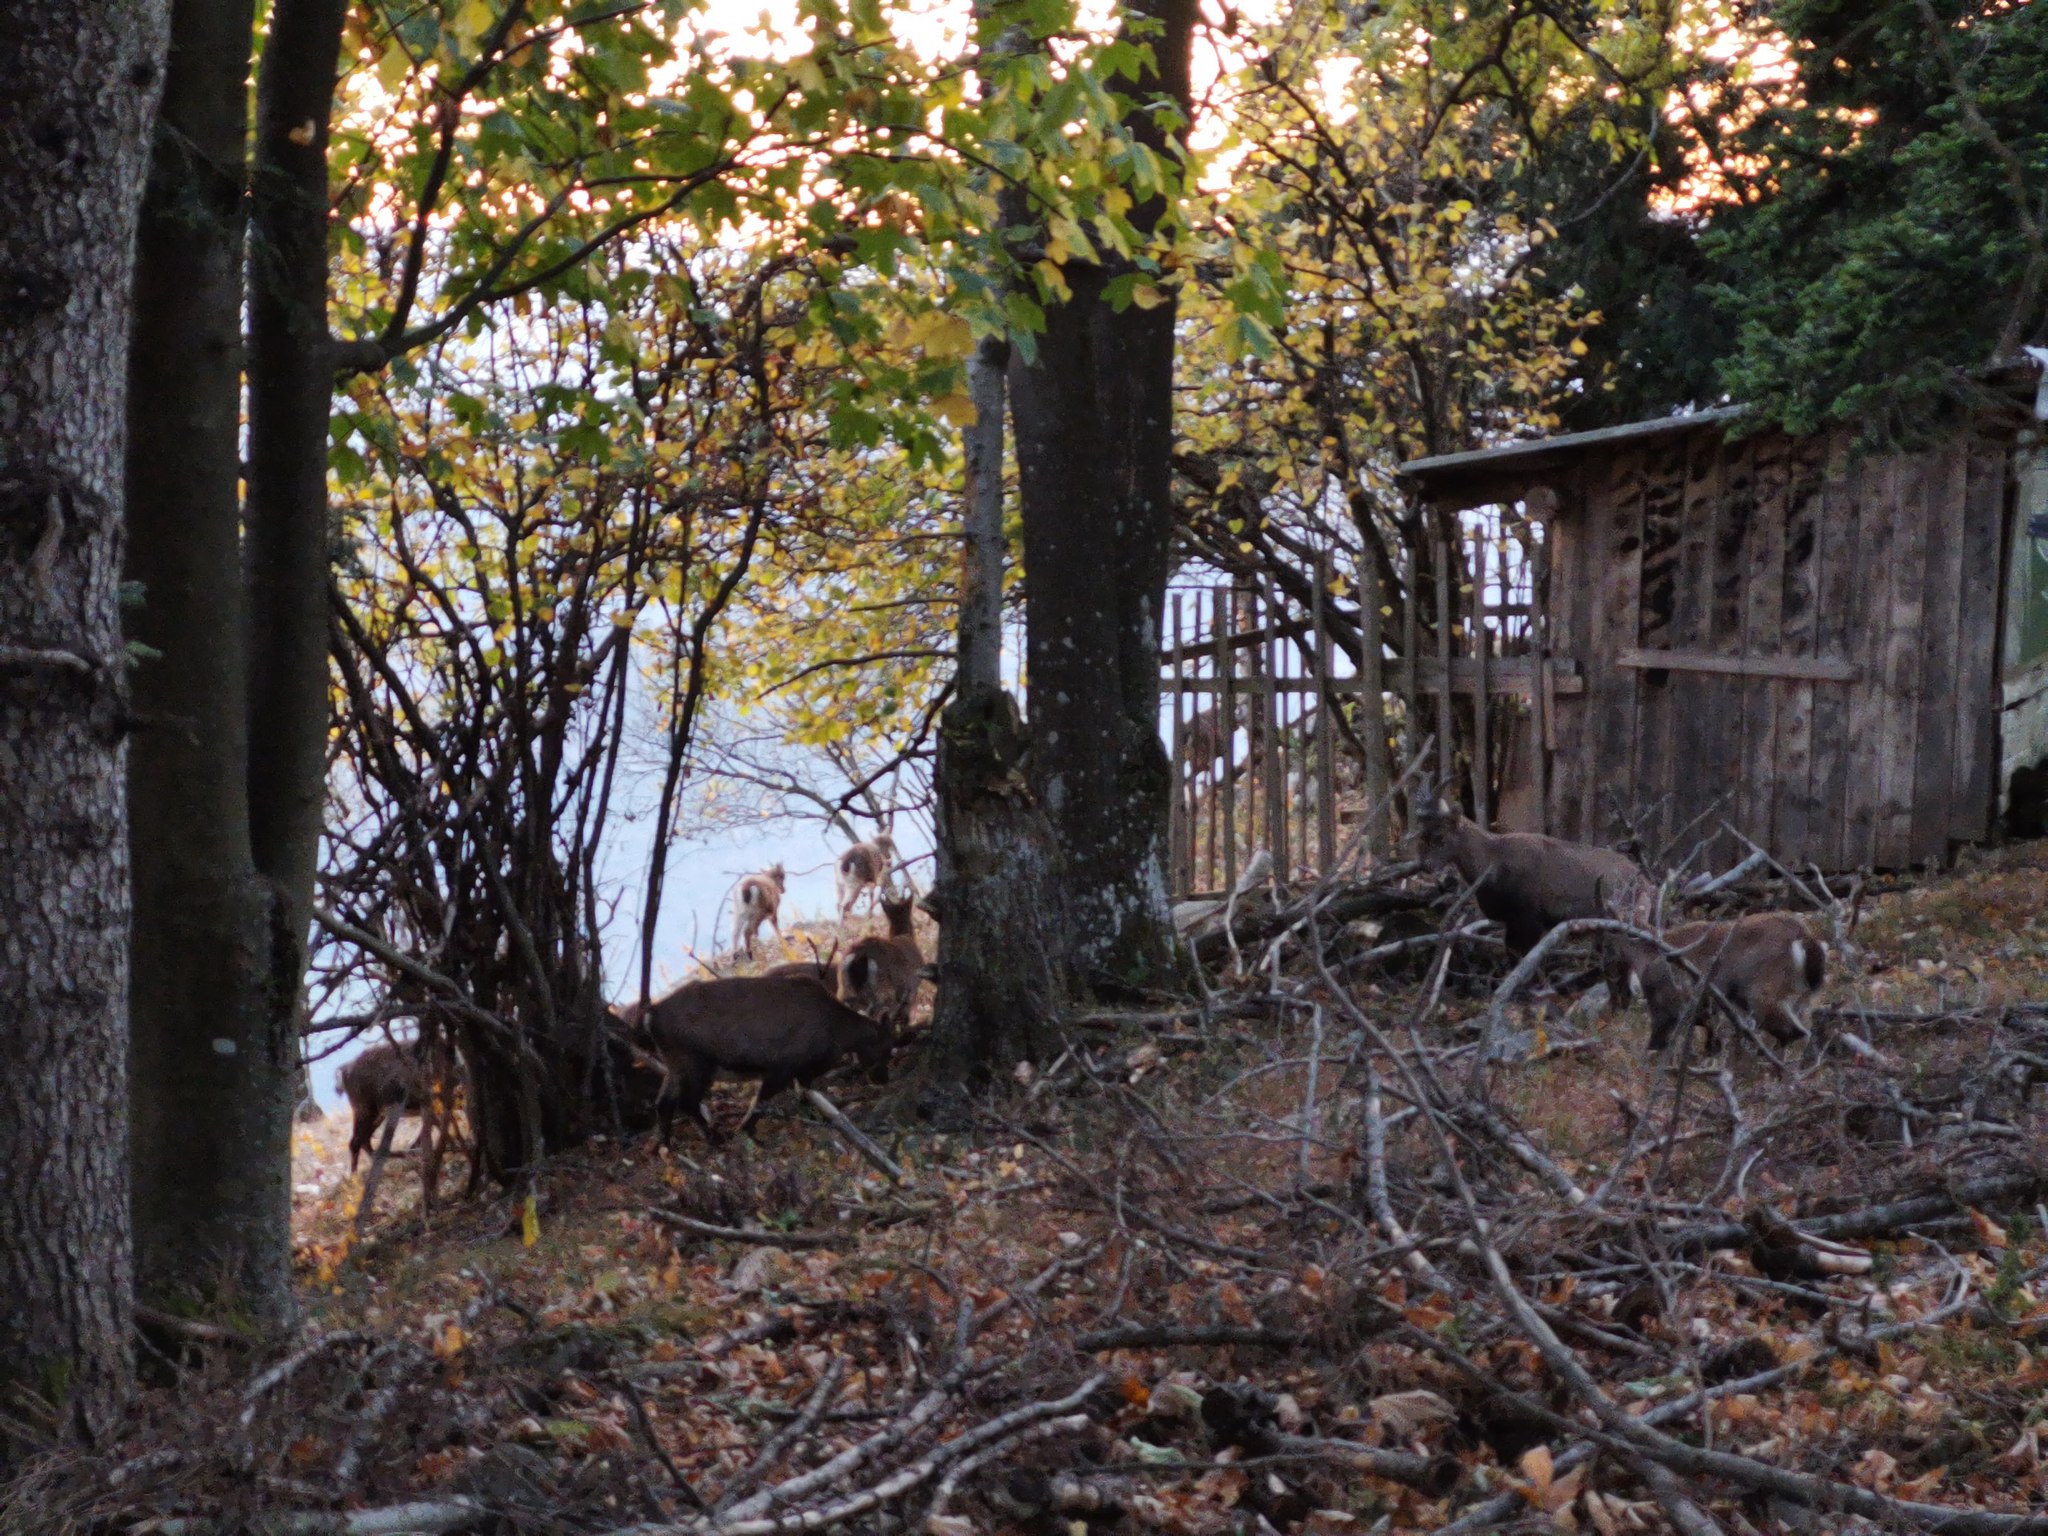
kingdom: Animalia
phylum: Chordata
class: Mammalia
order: Artiodactyla
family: Bovidae
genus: Capra
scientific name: Capra ibex
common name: Alpine ibex
